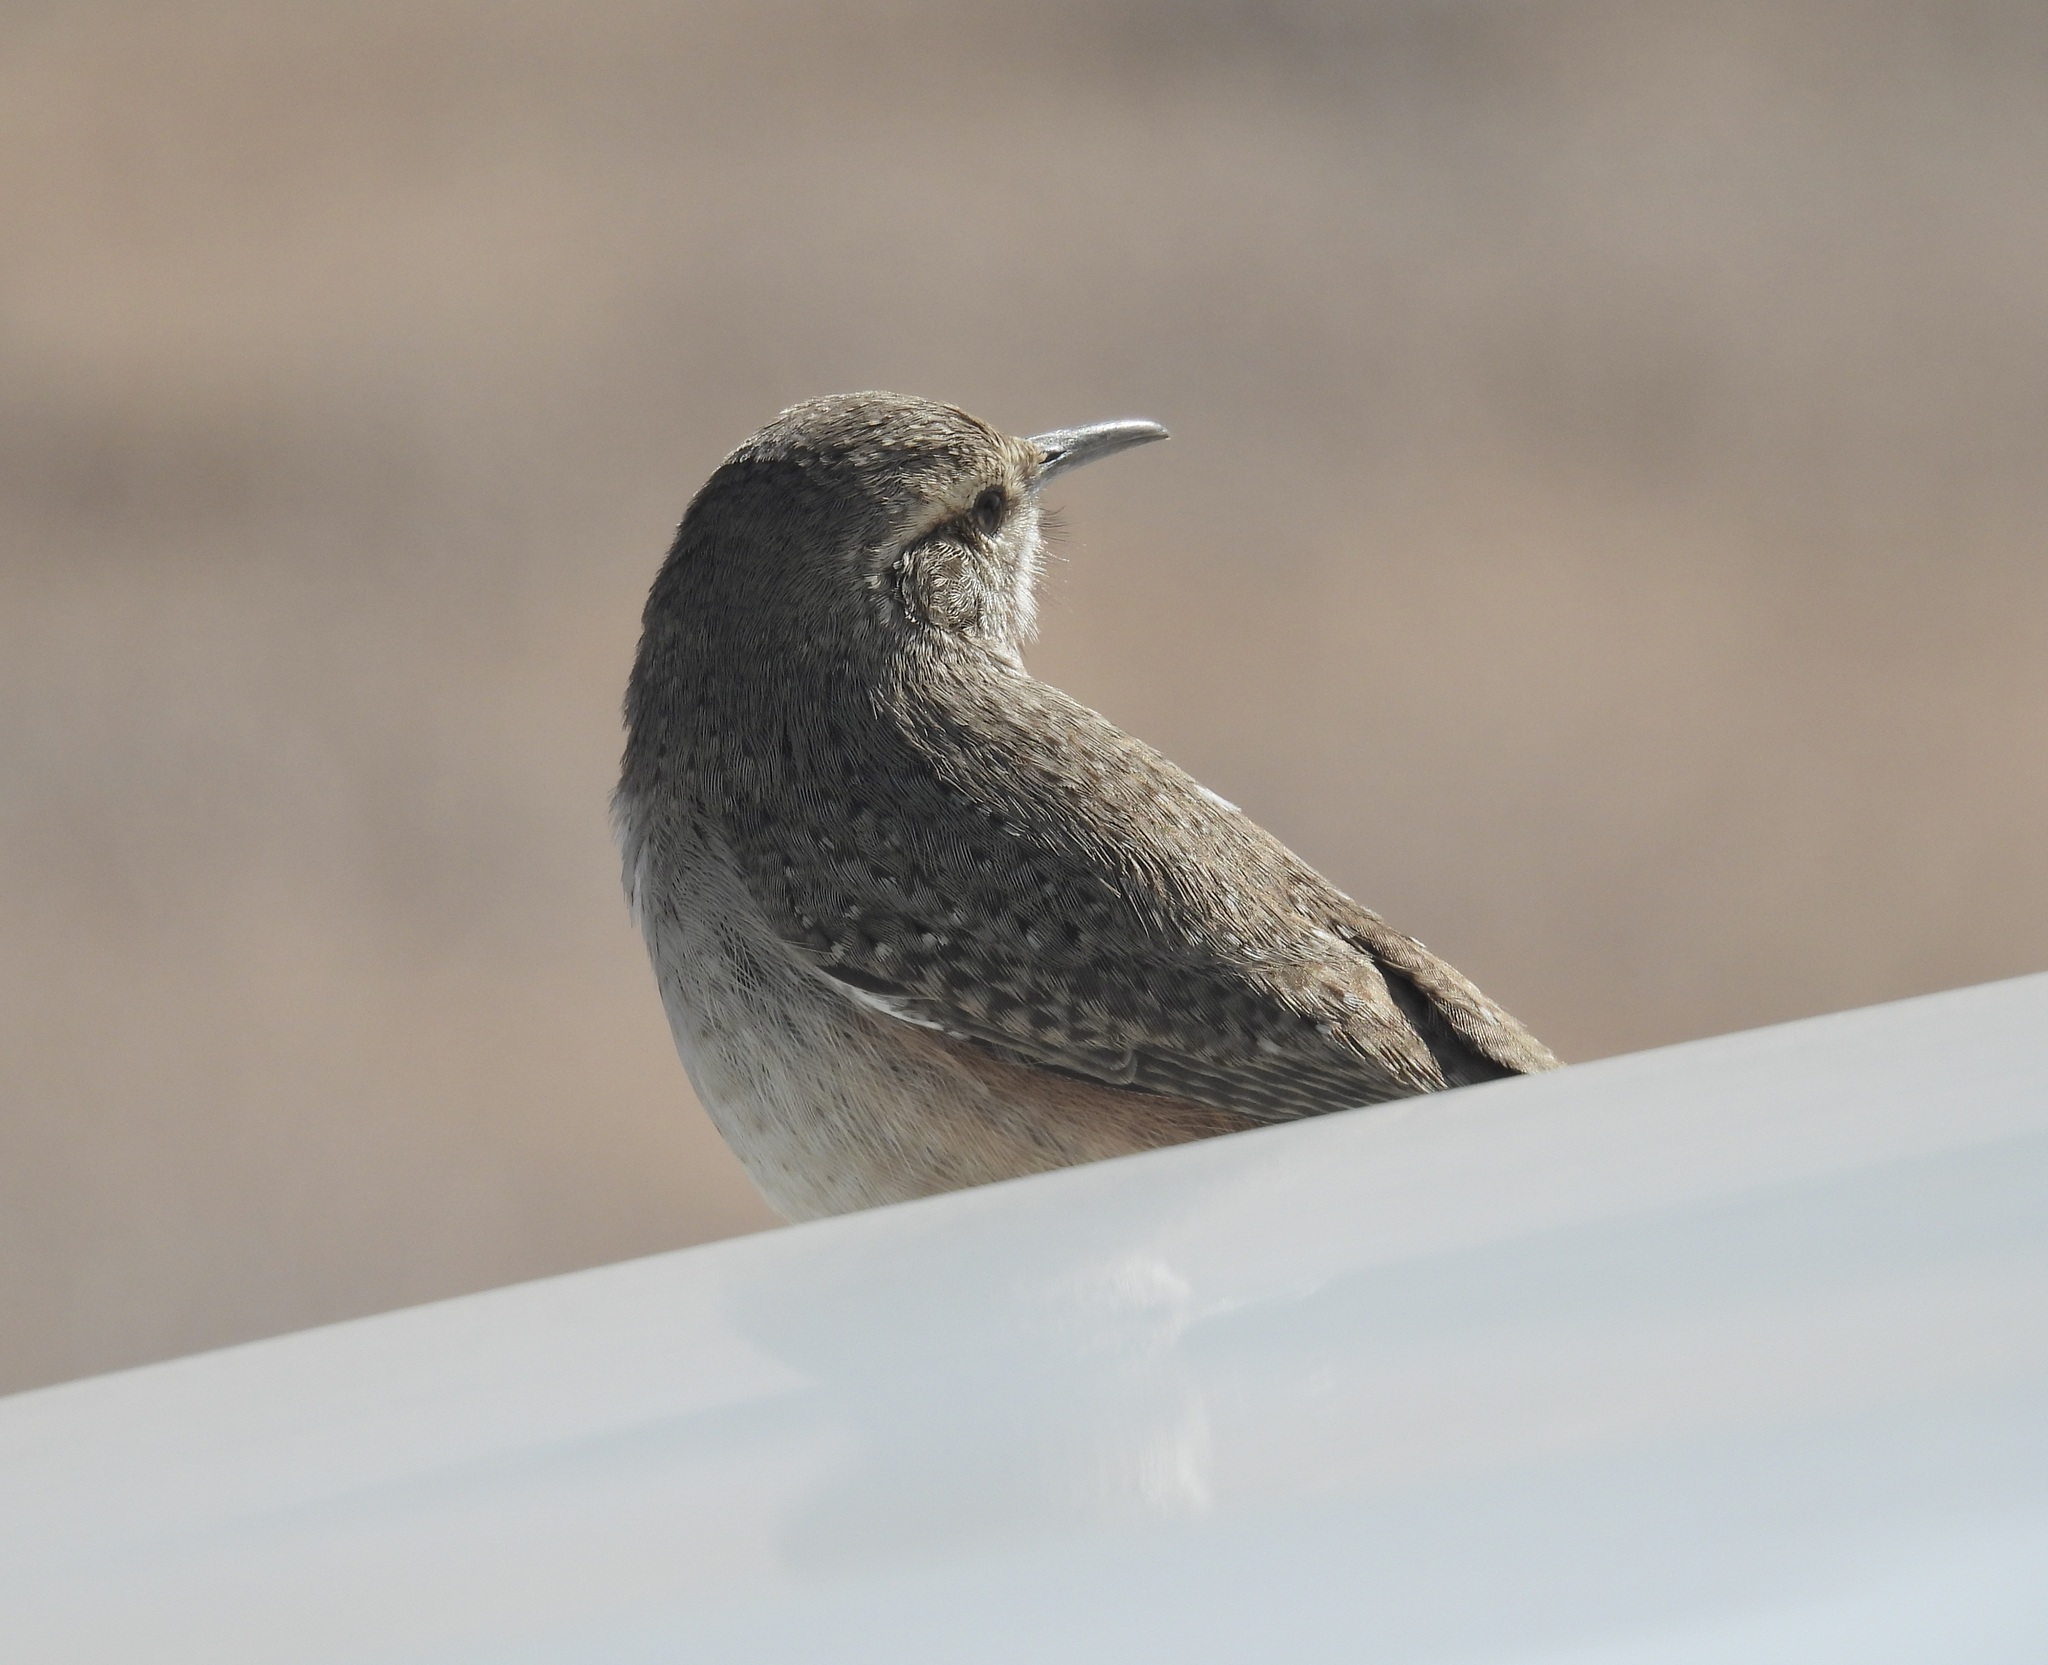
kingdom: Animalia
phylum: Chordata
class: Aves
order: Passeriformes
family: Troglodytidae
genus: Salpinctes
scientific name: Salpinctes obsoletus
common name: Rock wren
